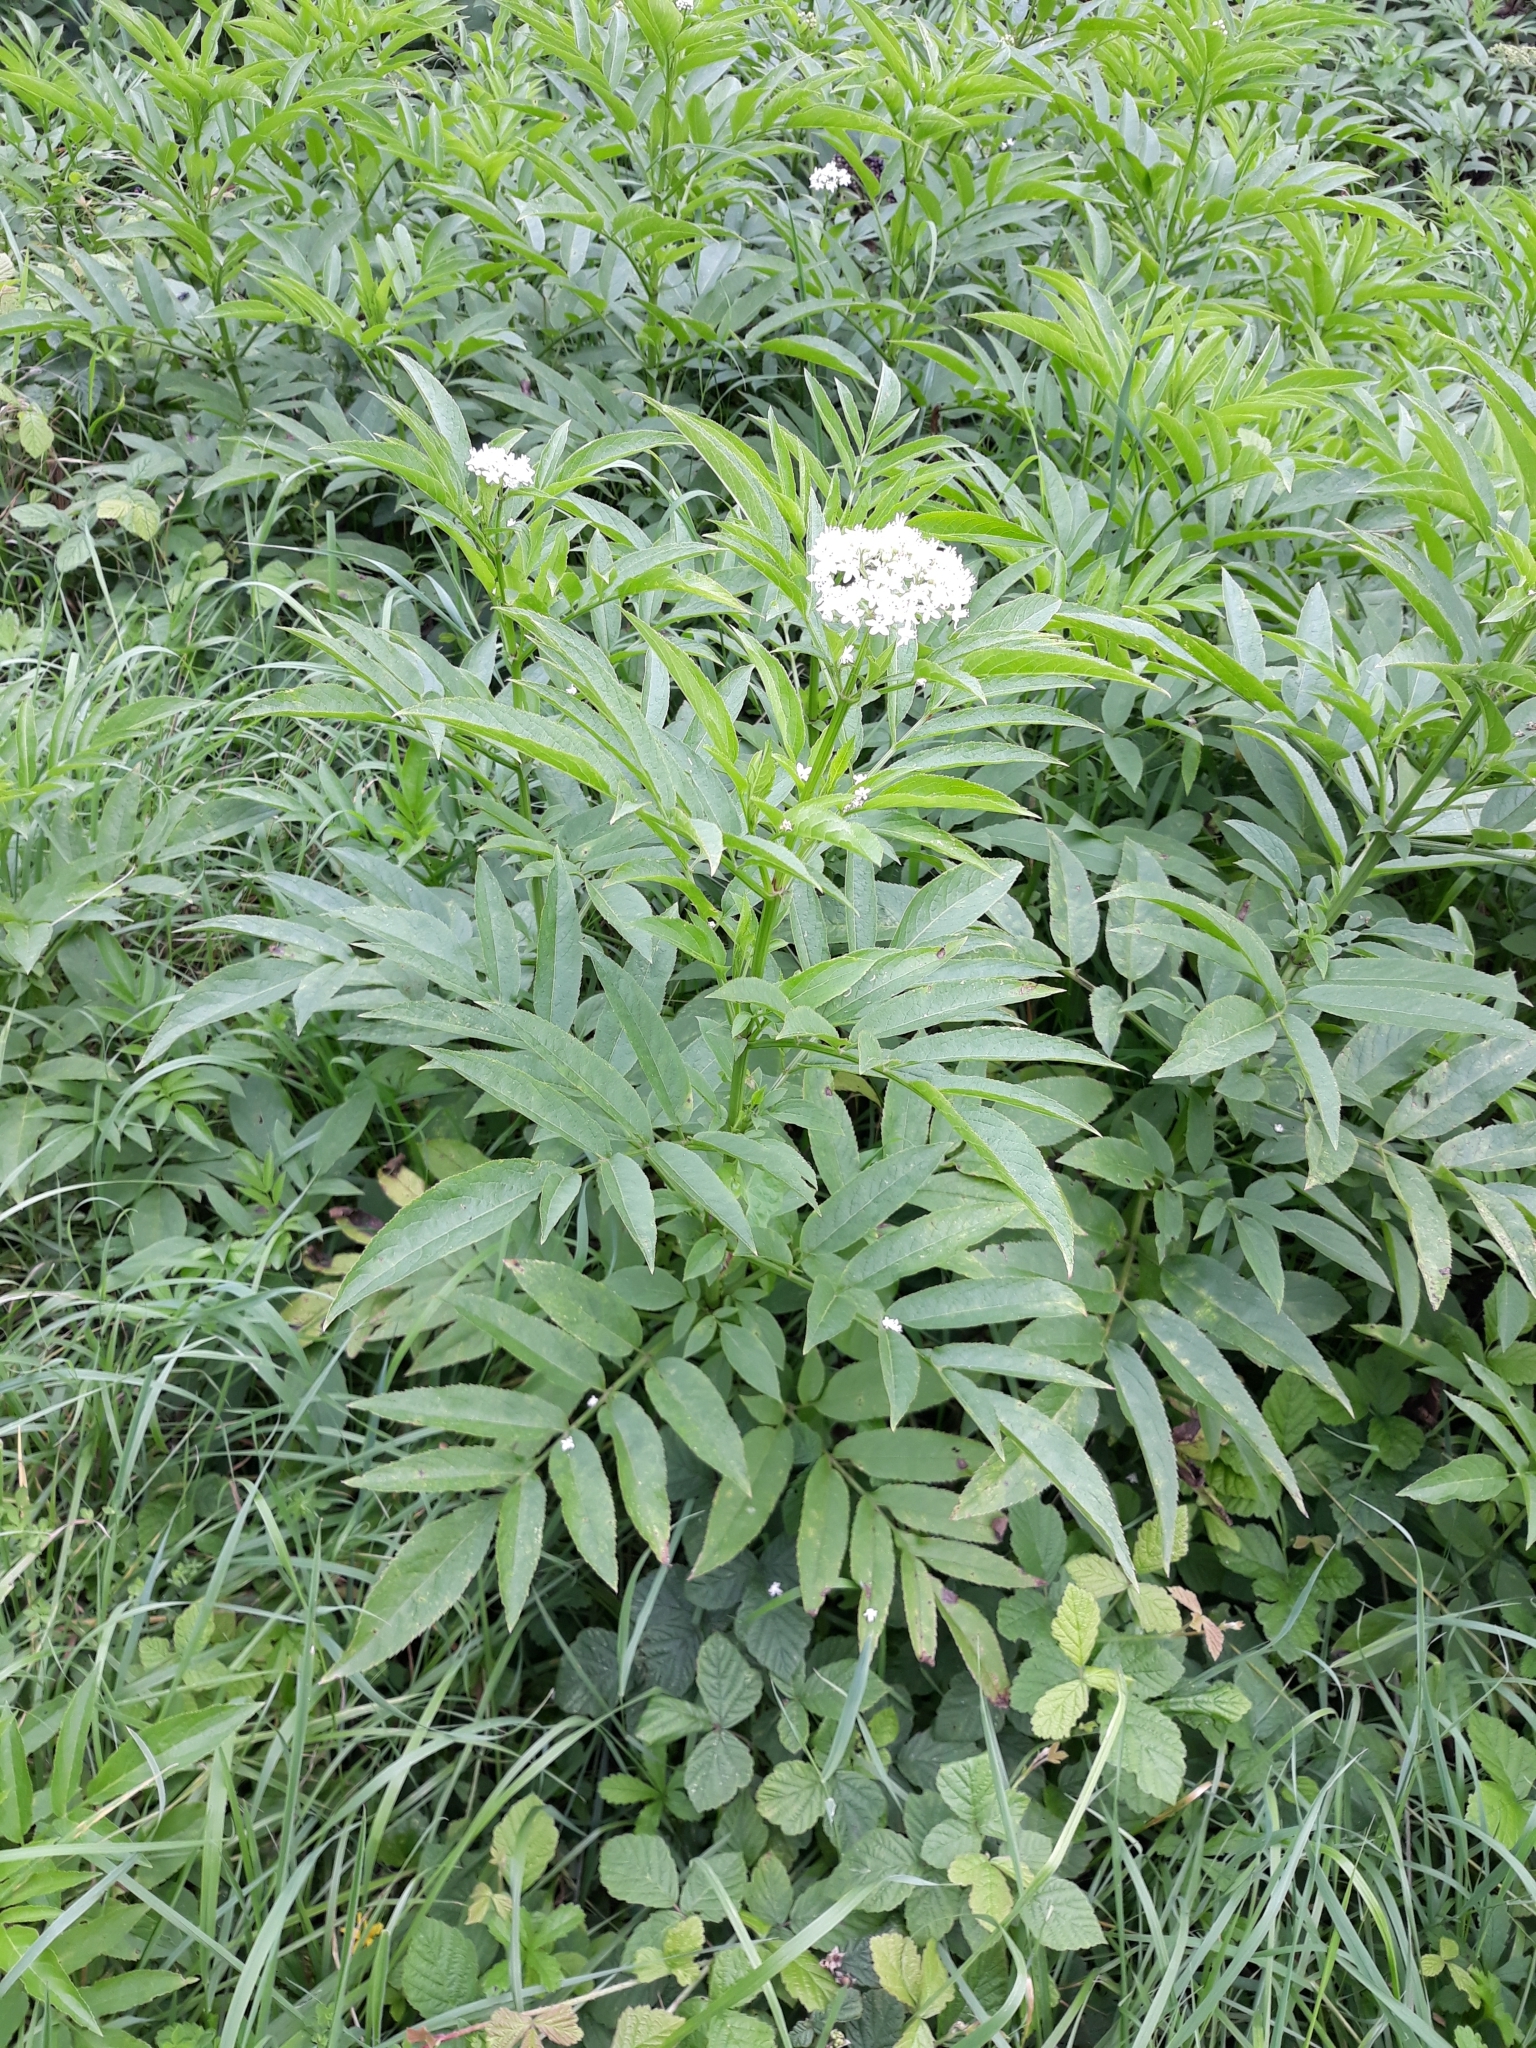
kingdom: Plantae
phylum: Tracheophyta
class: Magnoliopsida
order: Dipsacales
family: Viburnaceae
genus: Sambucus
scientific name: Sambucus ebulus
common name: Dwarf elder
